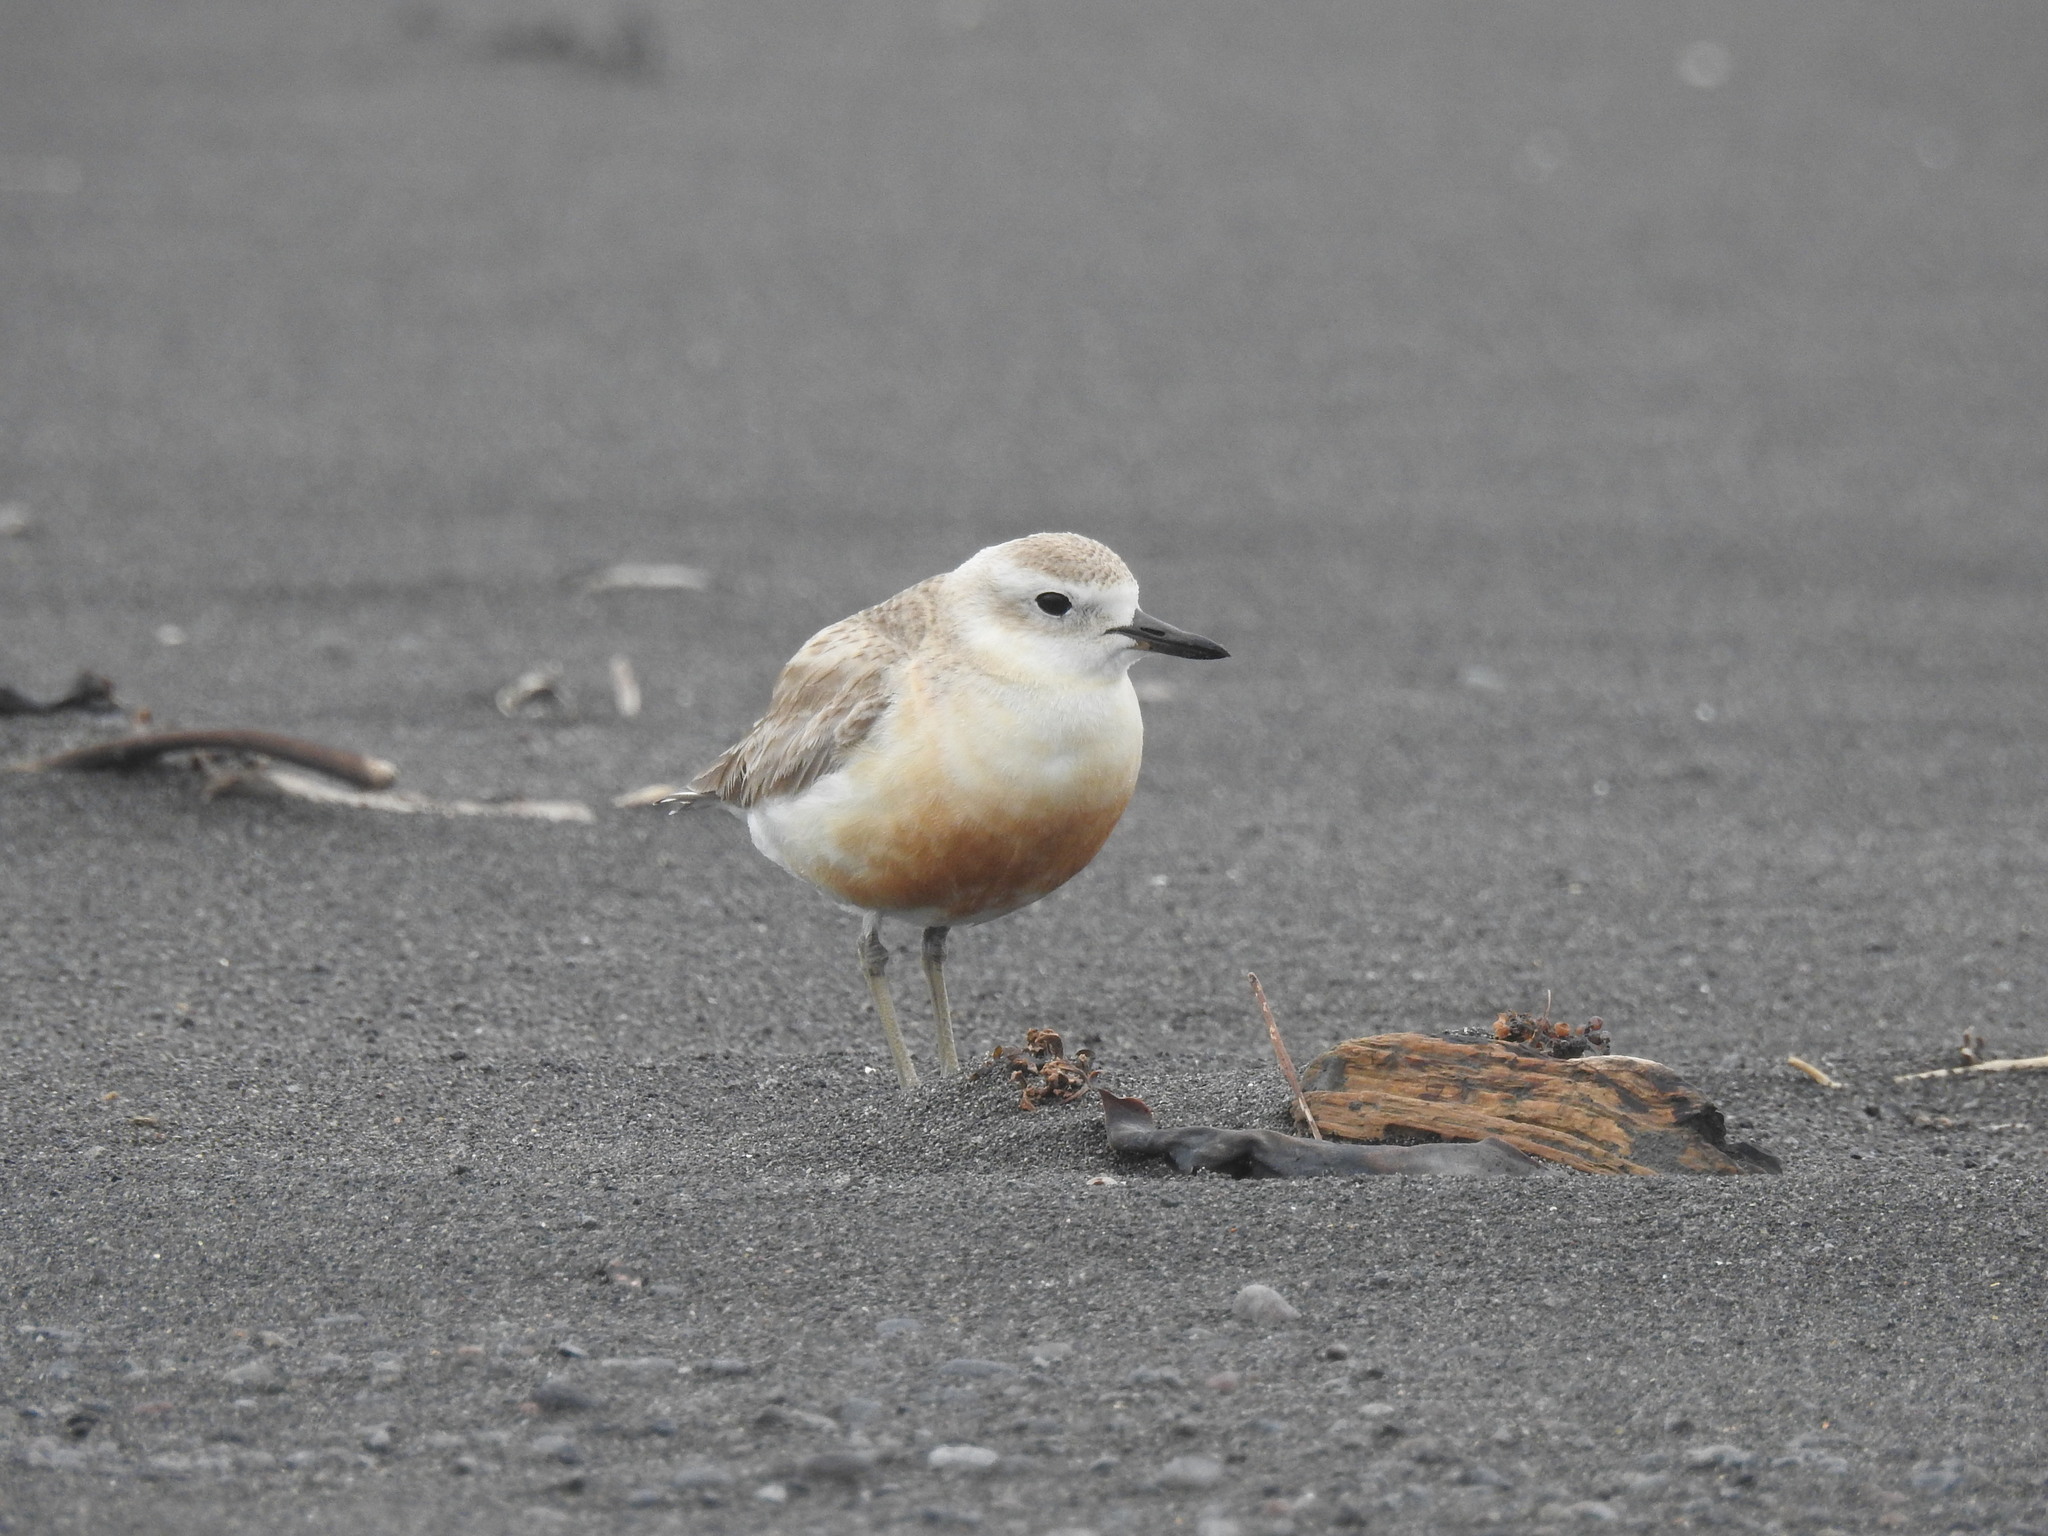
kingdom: Animalia
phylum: Chordata
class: Aves
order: Charadriiformes
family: Charadriidae
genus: Anarhynchus
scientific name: Anarhynchus
